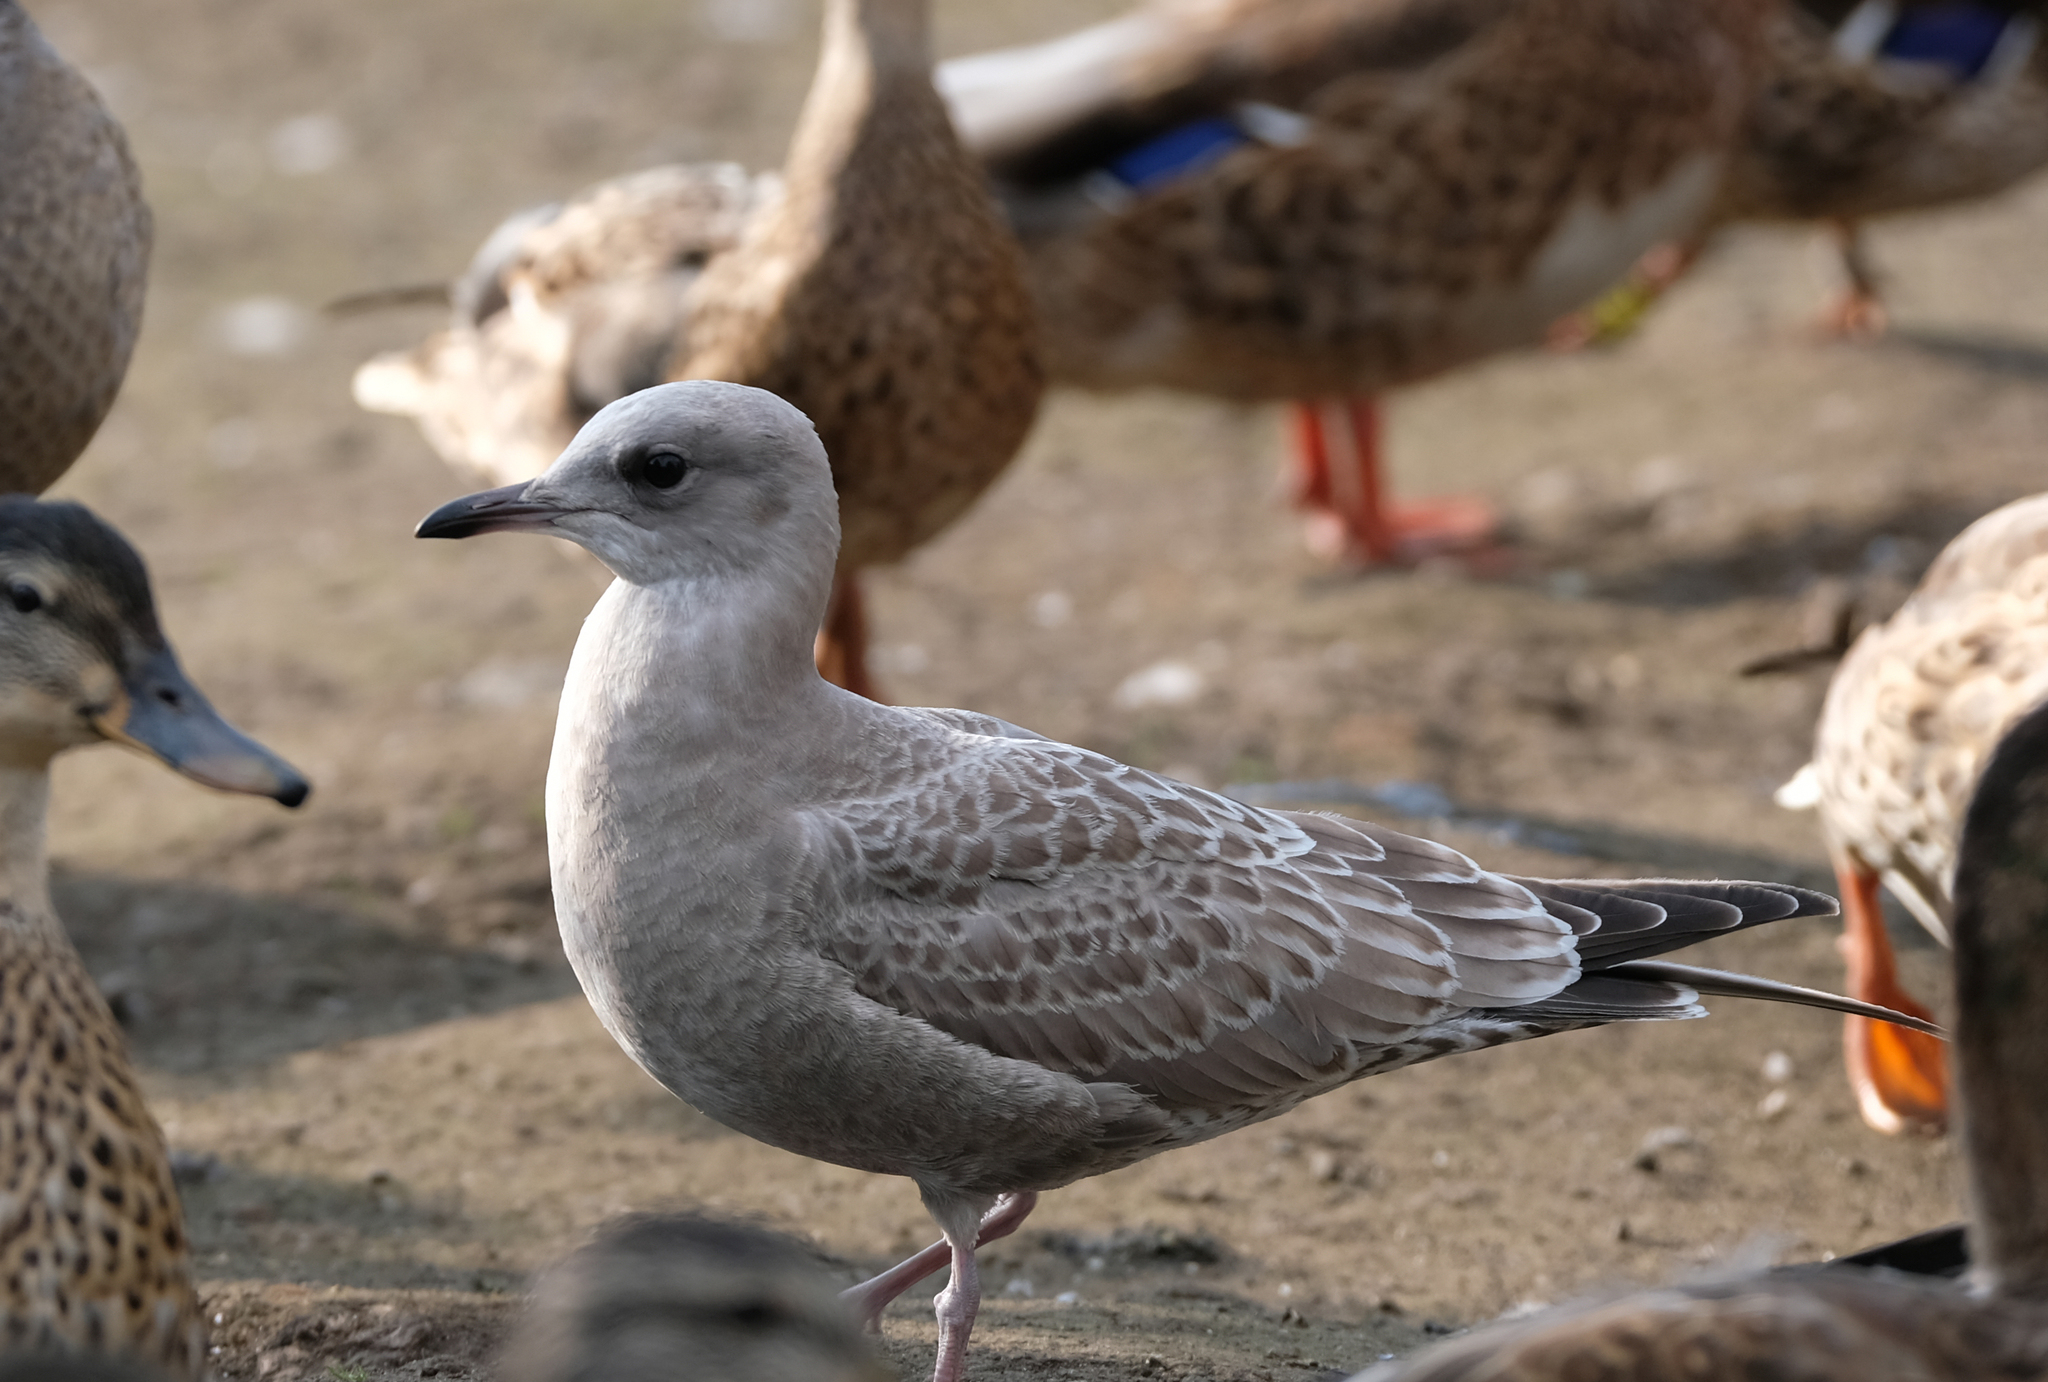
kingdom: Animalia
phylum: Chordata
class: Aves
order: Charadriiformes
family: Laridae
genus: Larus
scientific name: Larus brachyrhynchus
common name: Short-billed gull
